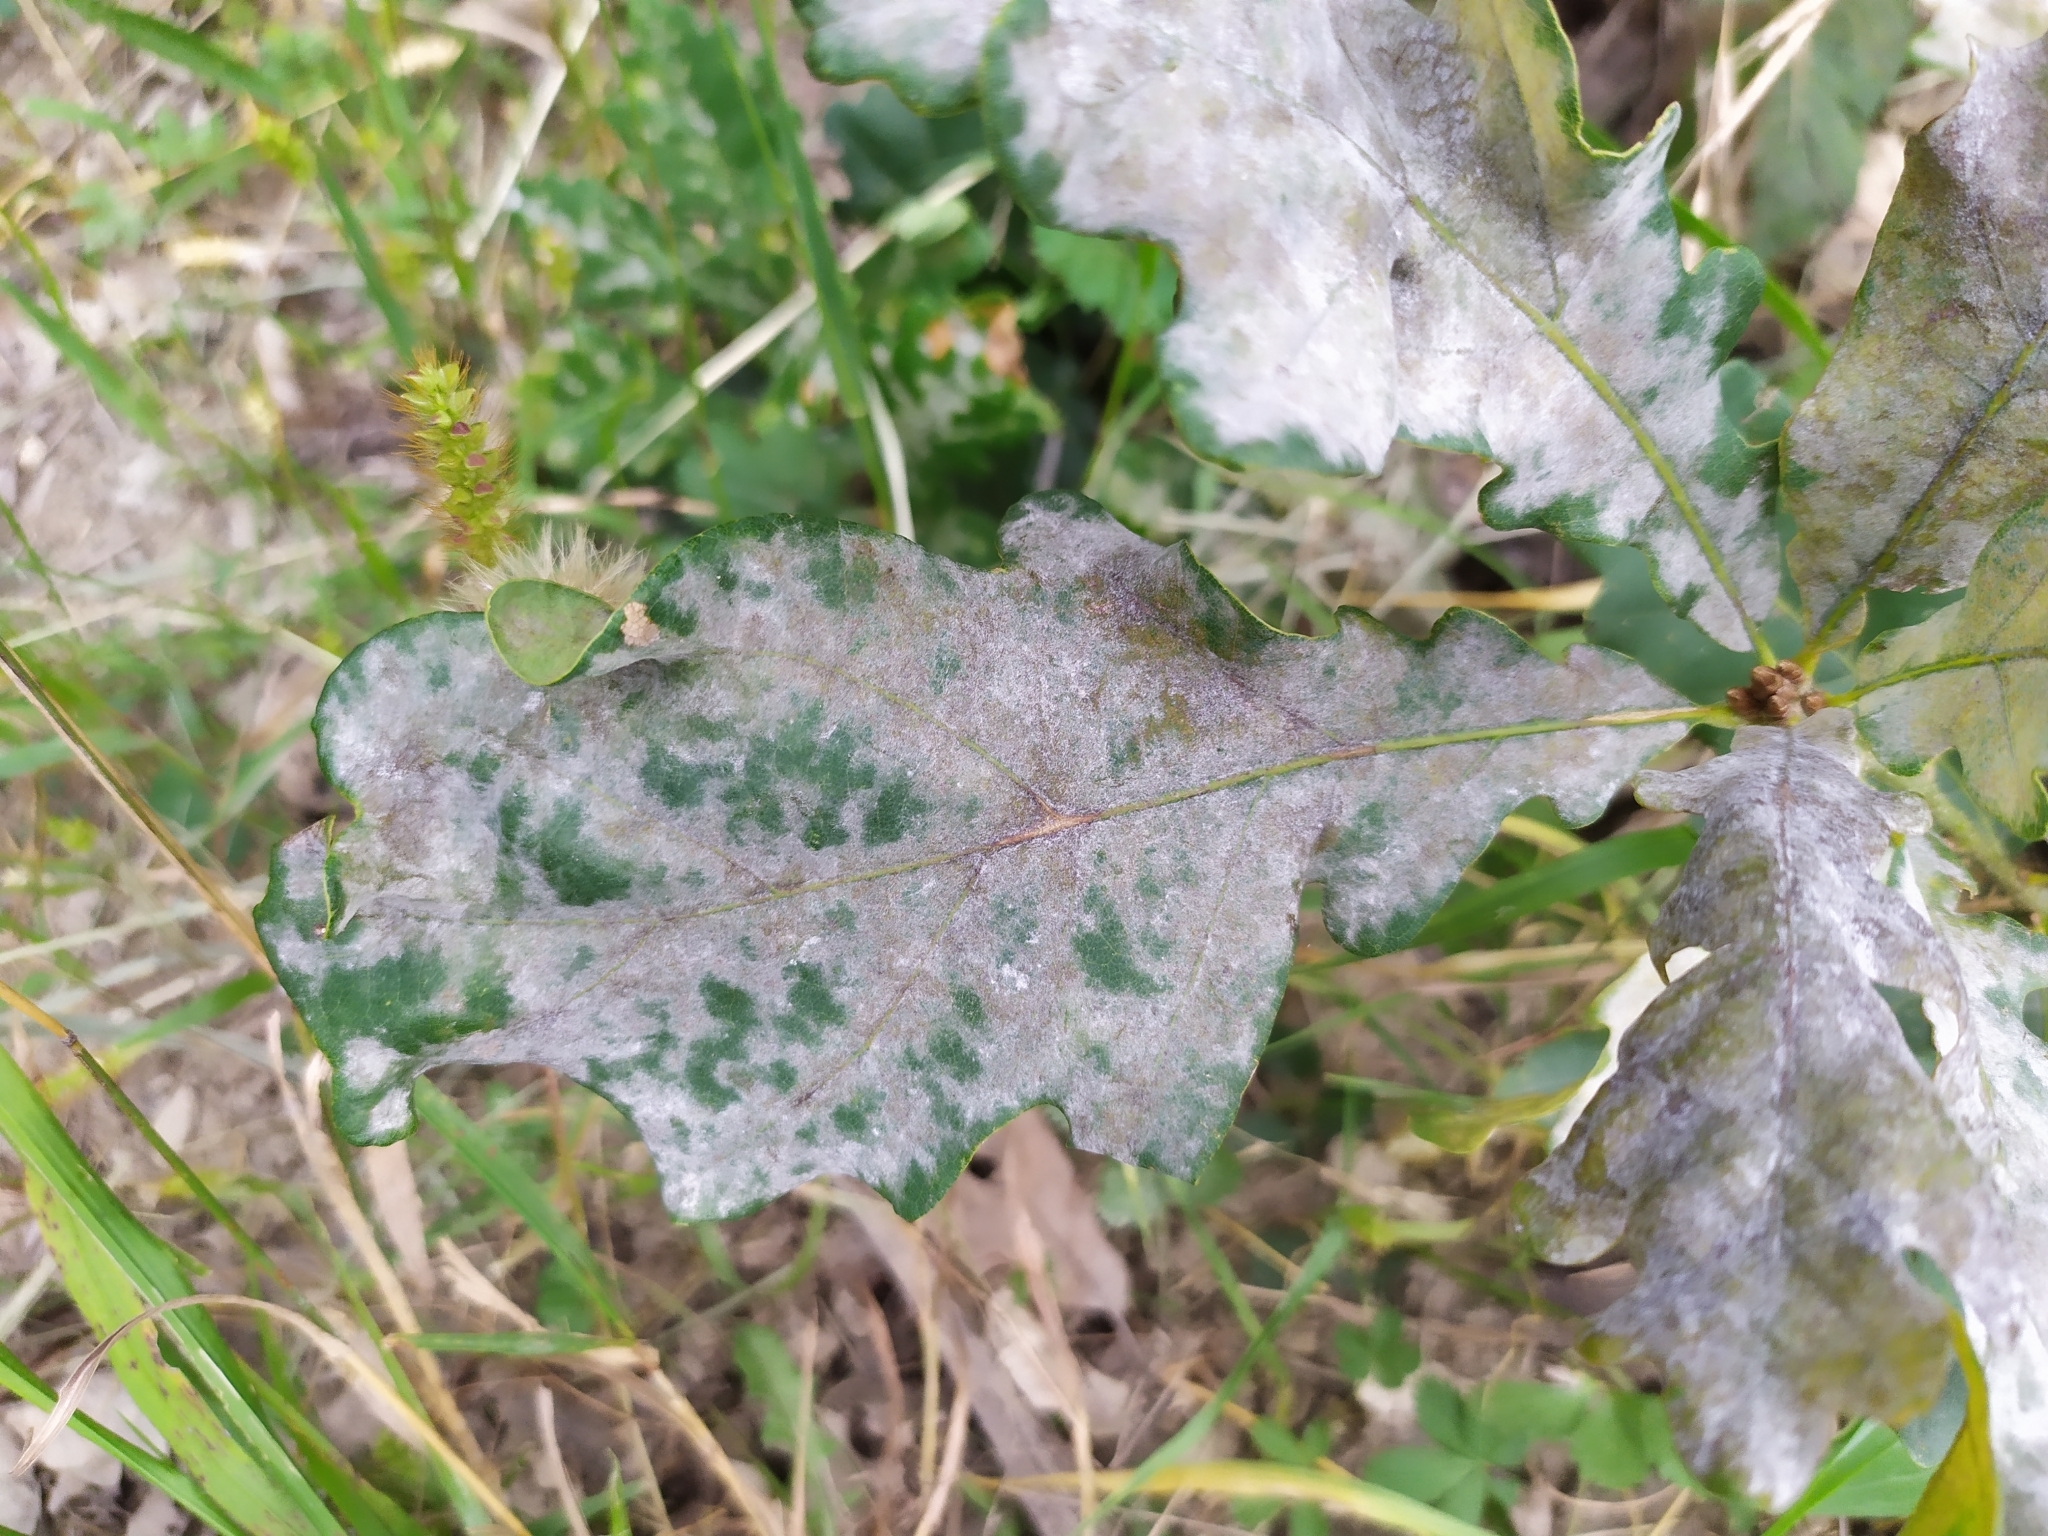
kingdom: Fungi
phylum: Ascomycota
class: Leotiomycetes
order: Helotiales
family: Erysiphaceae
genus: Erysiphe
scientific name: Erysiphe
